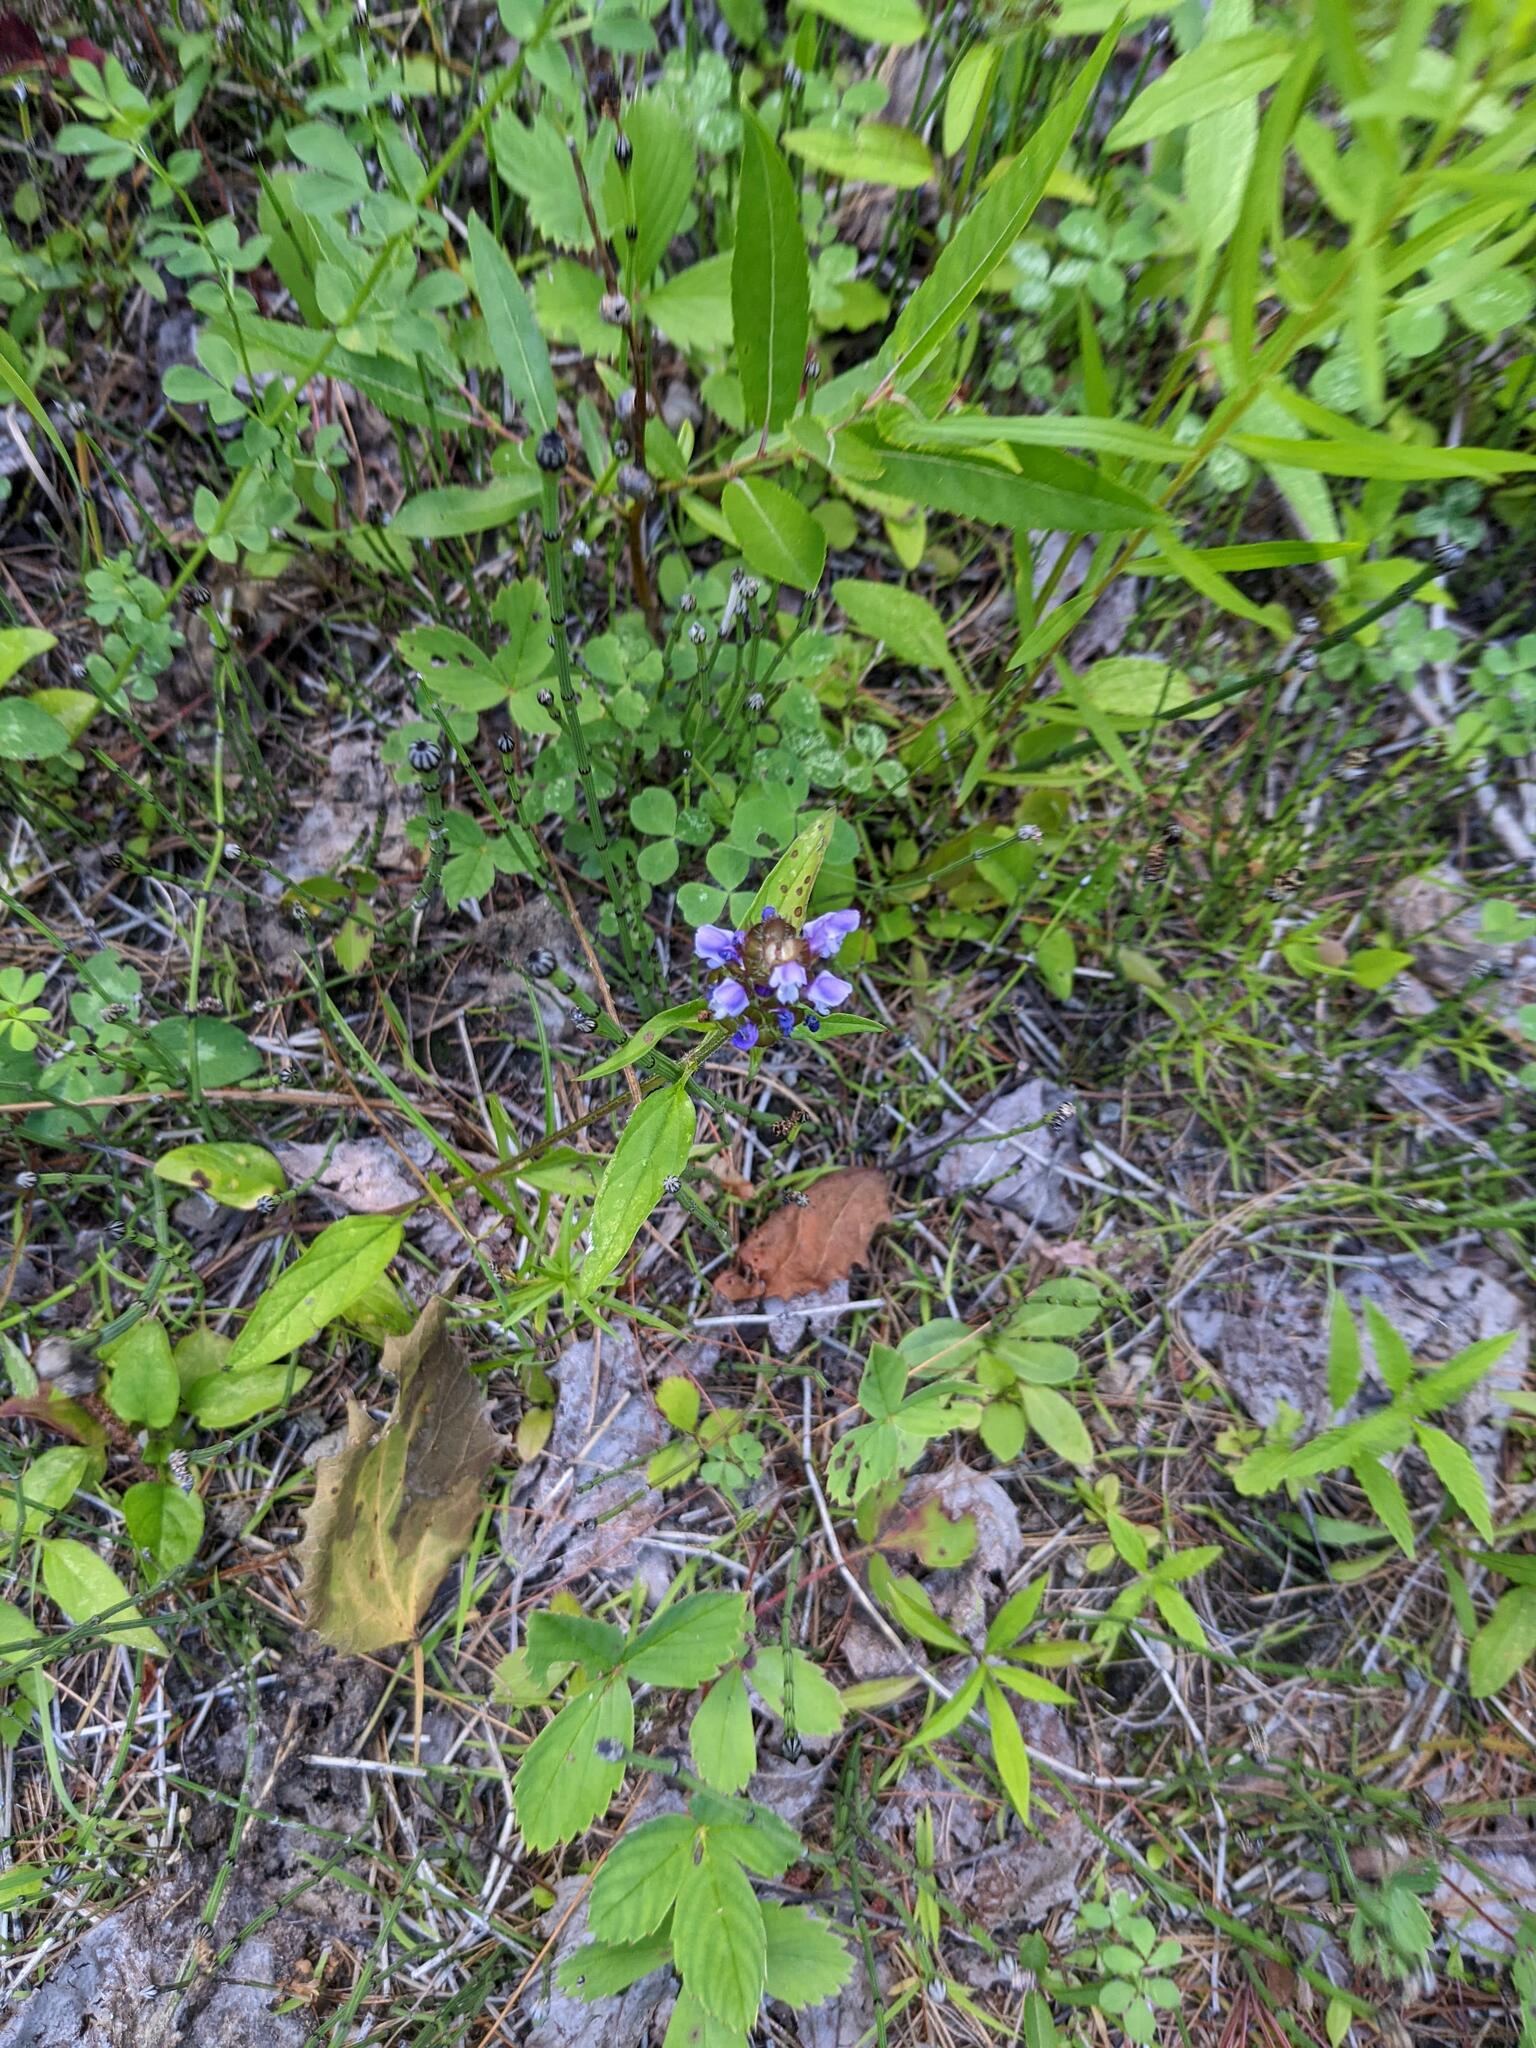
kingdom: Plantae
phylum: Tracheophyta
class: Magnoliopsida
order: Lamiales
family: Lamiaceae
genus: Prunella
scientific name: Prunella vulgaris
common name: Heal-all
